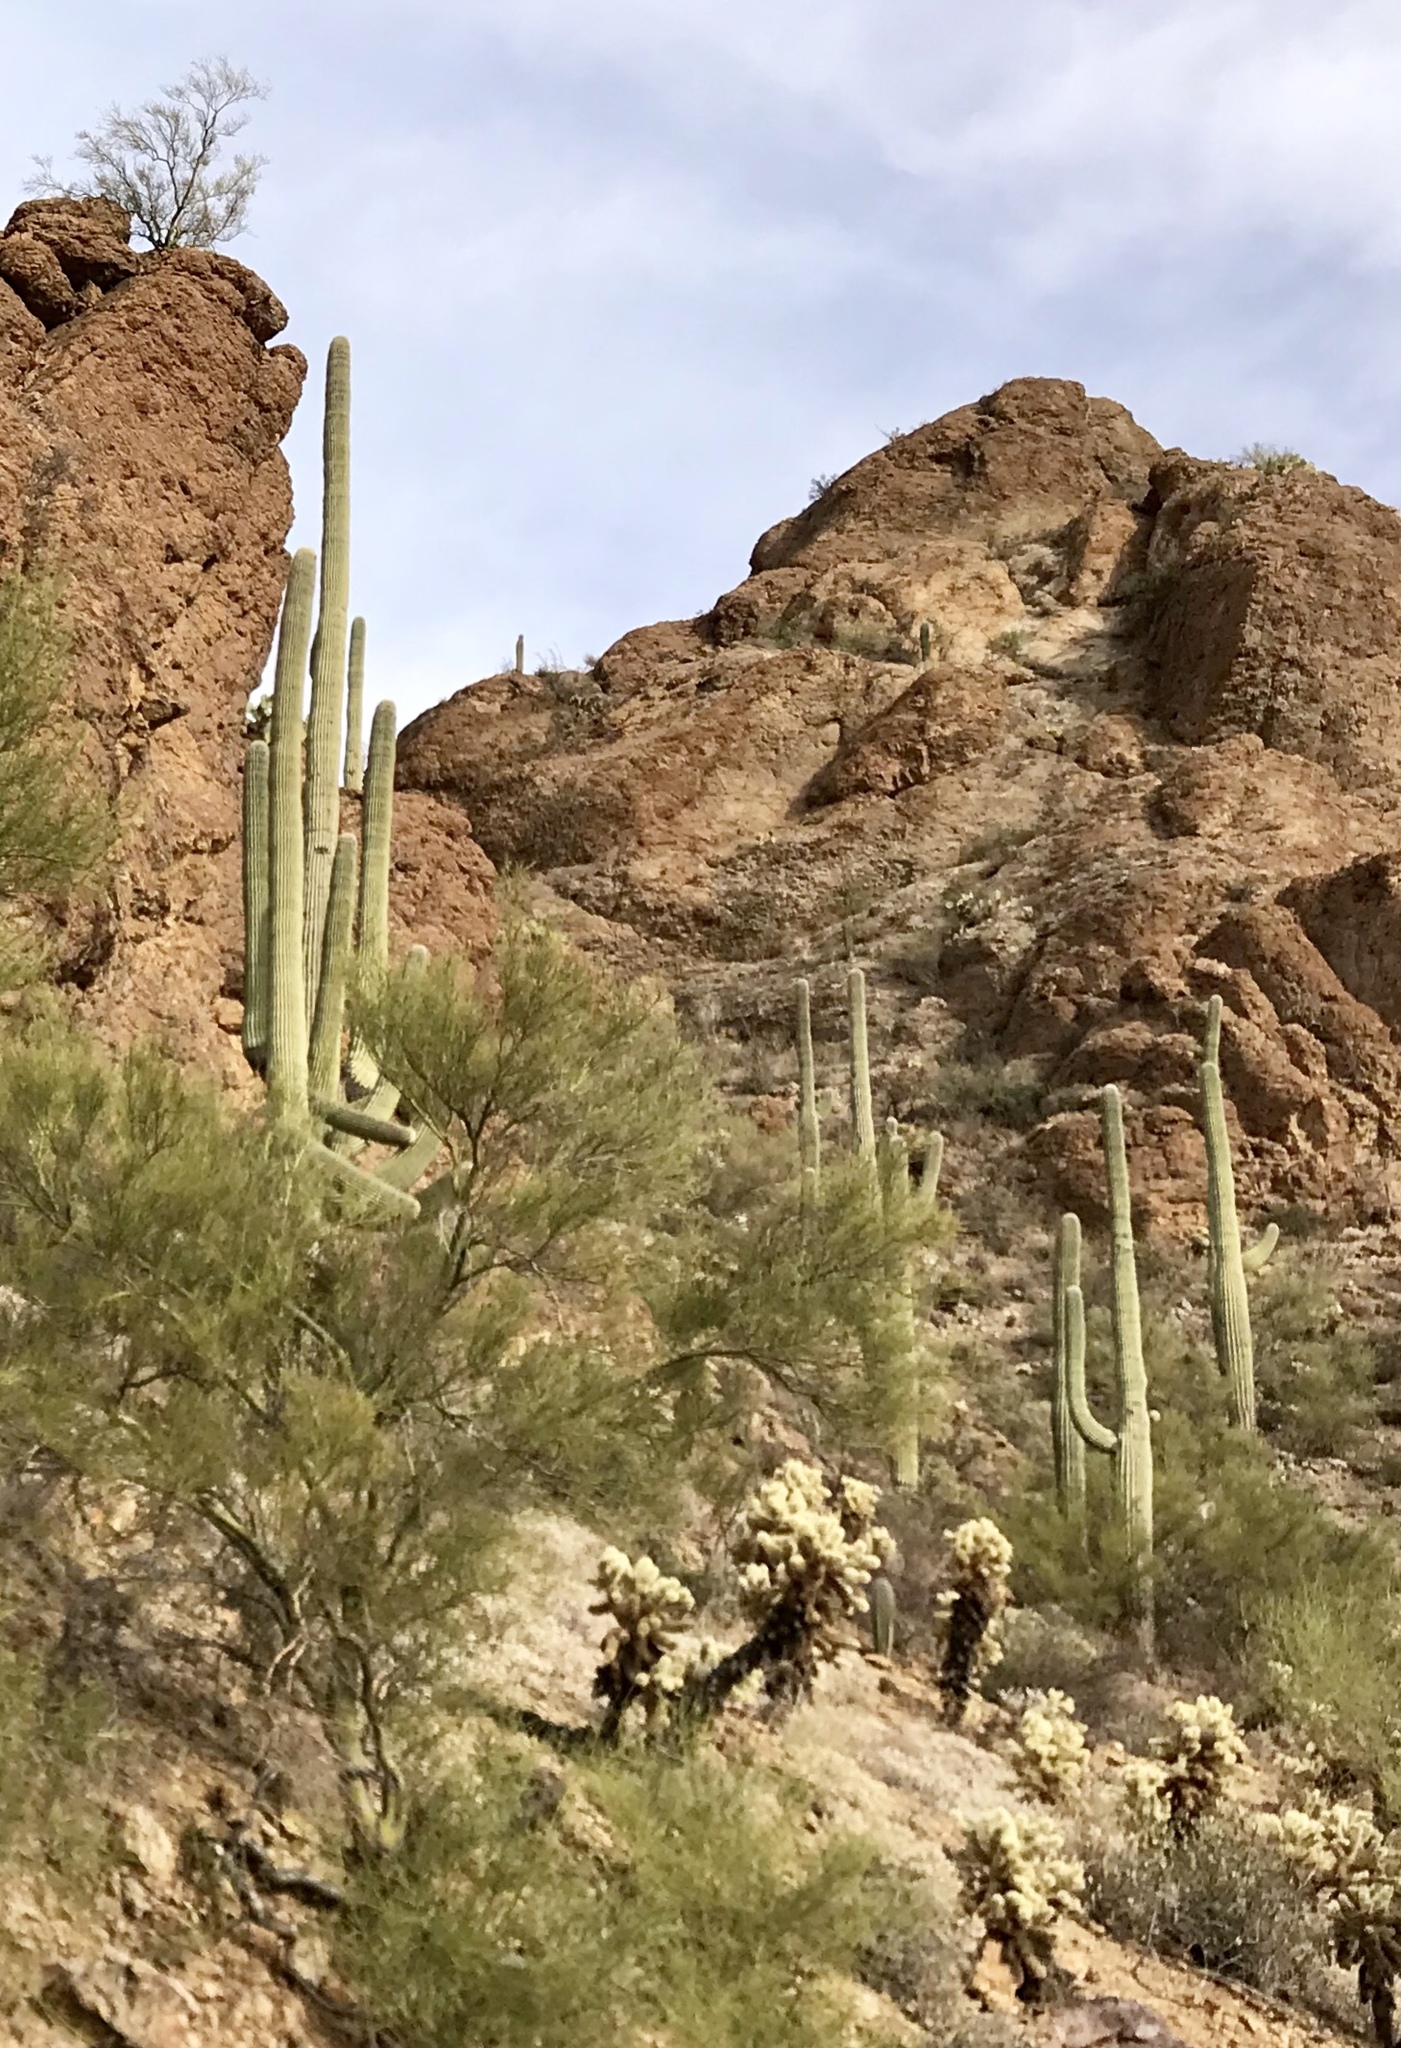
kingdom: Plantae
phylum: Tracheophyta
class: Magnoliopsida
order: Caryophyllales
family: Cactaceae
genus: Carnegiea
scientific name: Carnegiea gigantea
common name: Saguaro
